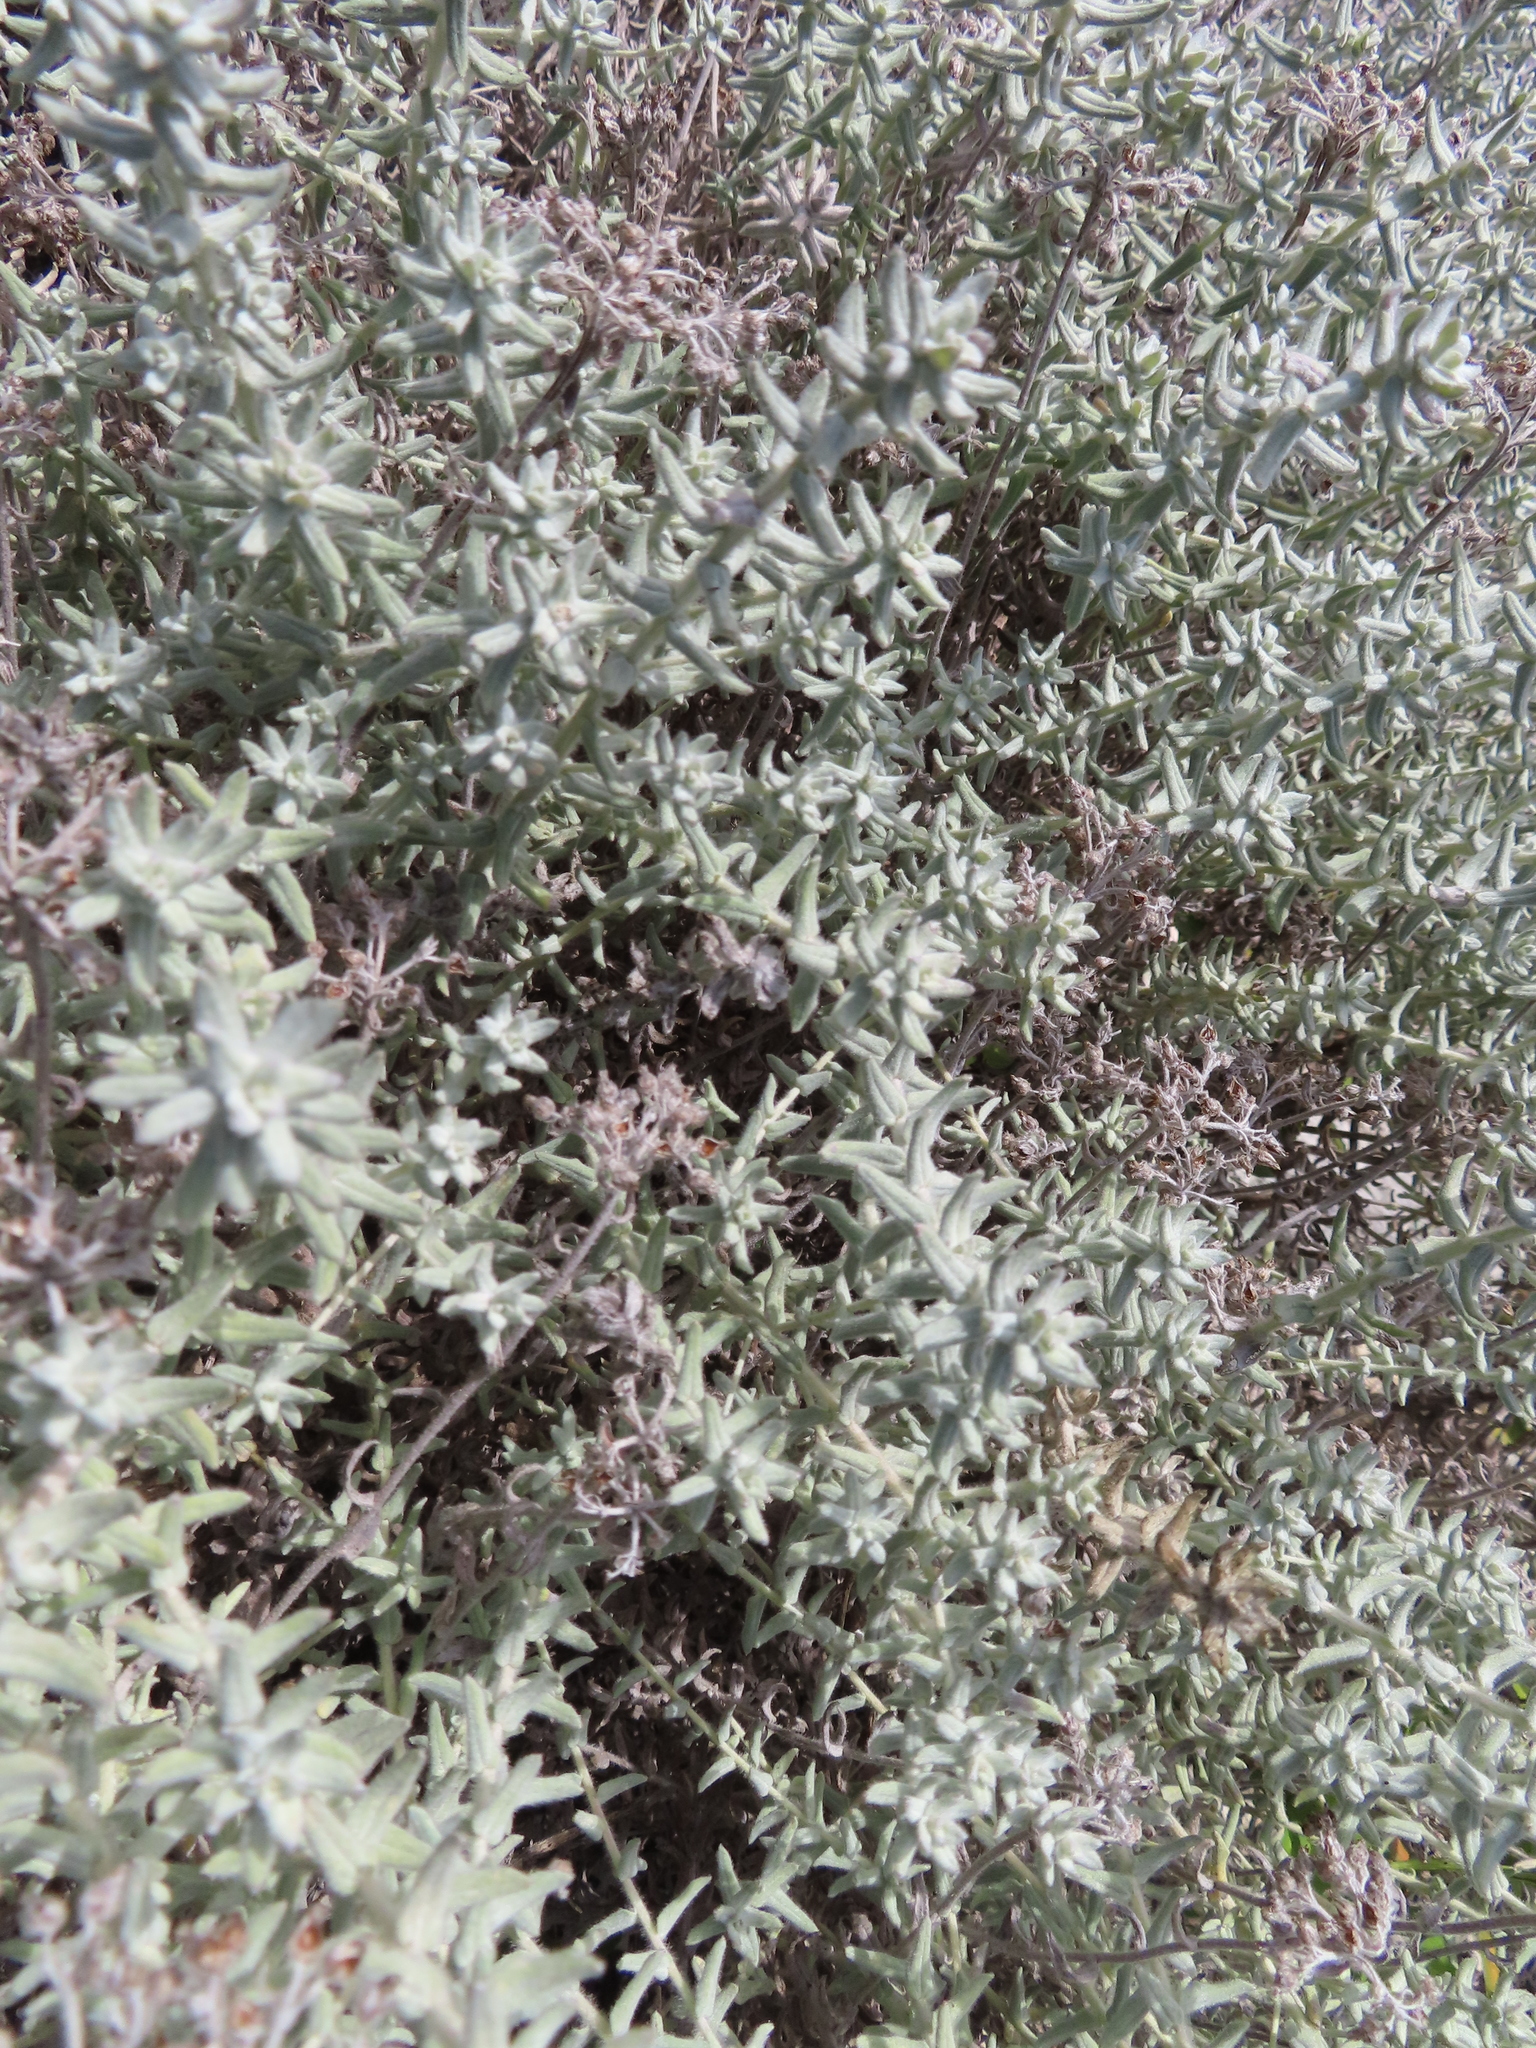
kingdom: Plantae
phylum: Tracheophyta
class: Magnoliopsida
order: Asterales
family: Asteraceae
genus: Helichrysum
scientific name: Helichrysum dasyanthum
